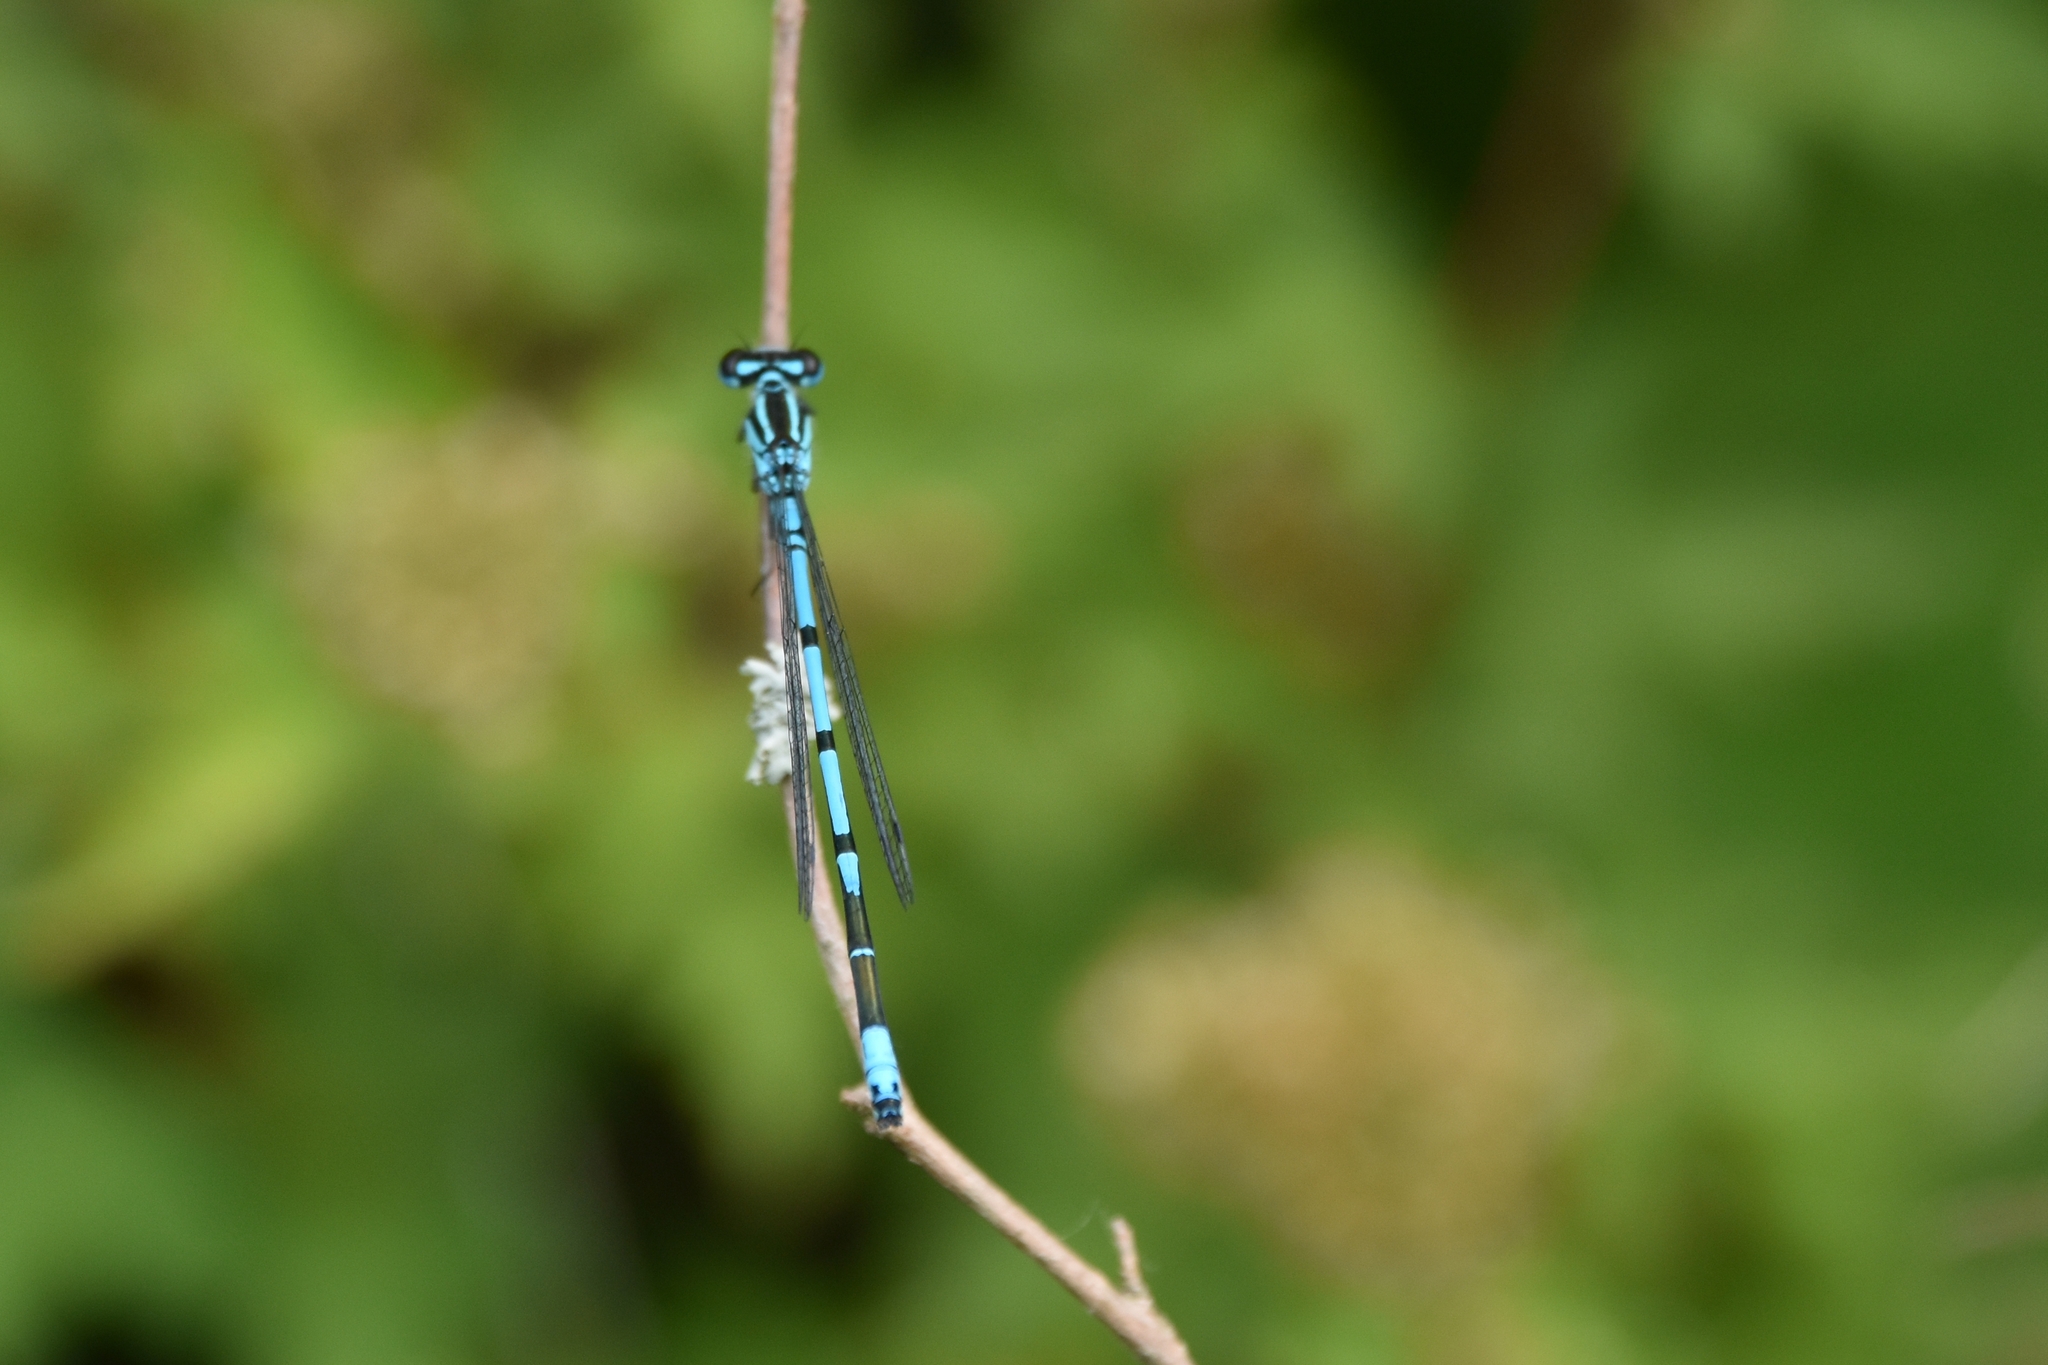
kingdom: Animalia
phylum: Arthropoda
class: Insecta
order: Odonata
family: Coenagrionidae
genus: Coenagrion
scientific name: Coenagrion puella
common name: Azure damselfly
